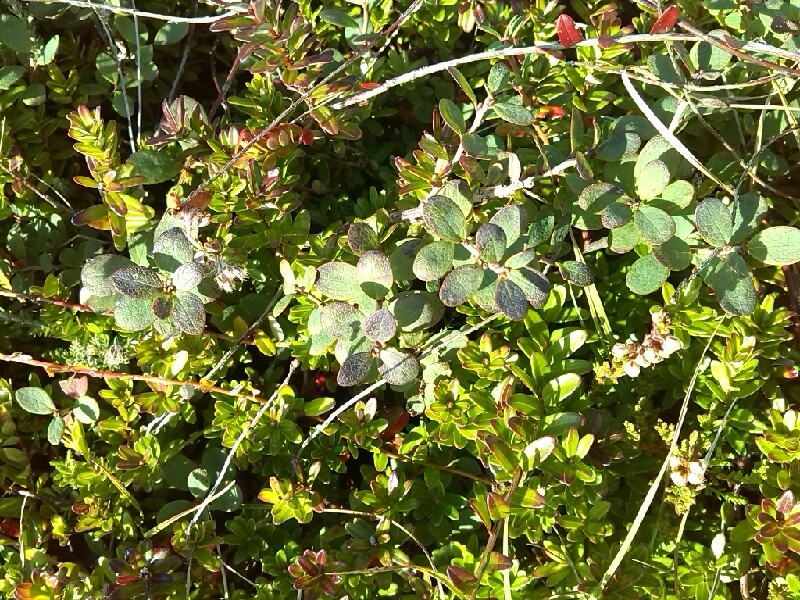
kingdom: Plantae
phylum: Tracheophyta
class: Magnoliopsida
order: Ericales
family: Ericaceae
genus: Vaccinium
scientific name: Vaccinium uliginosum
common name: Bog bilberry
